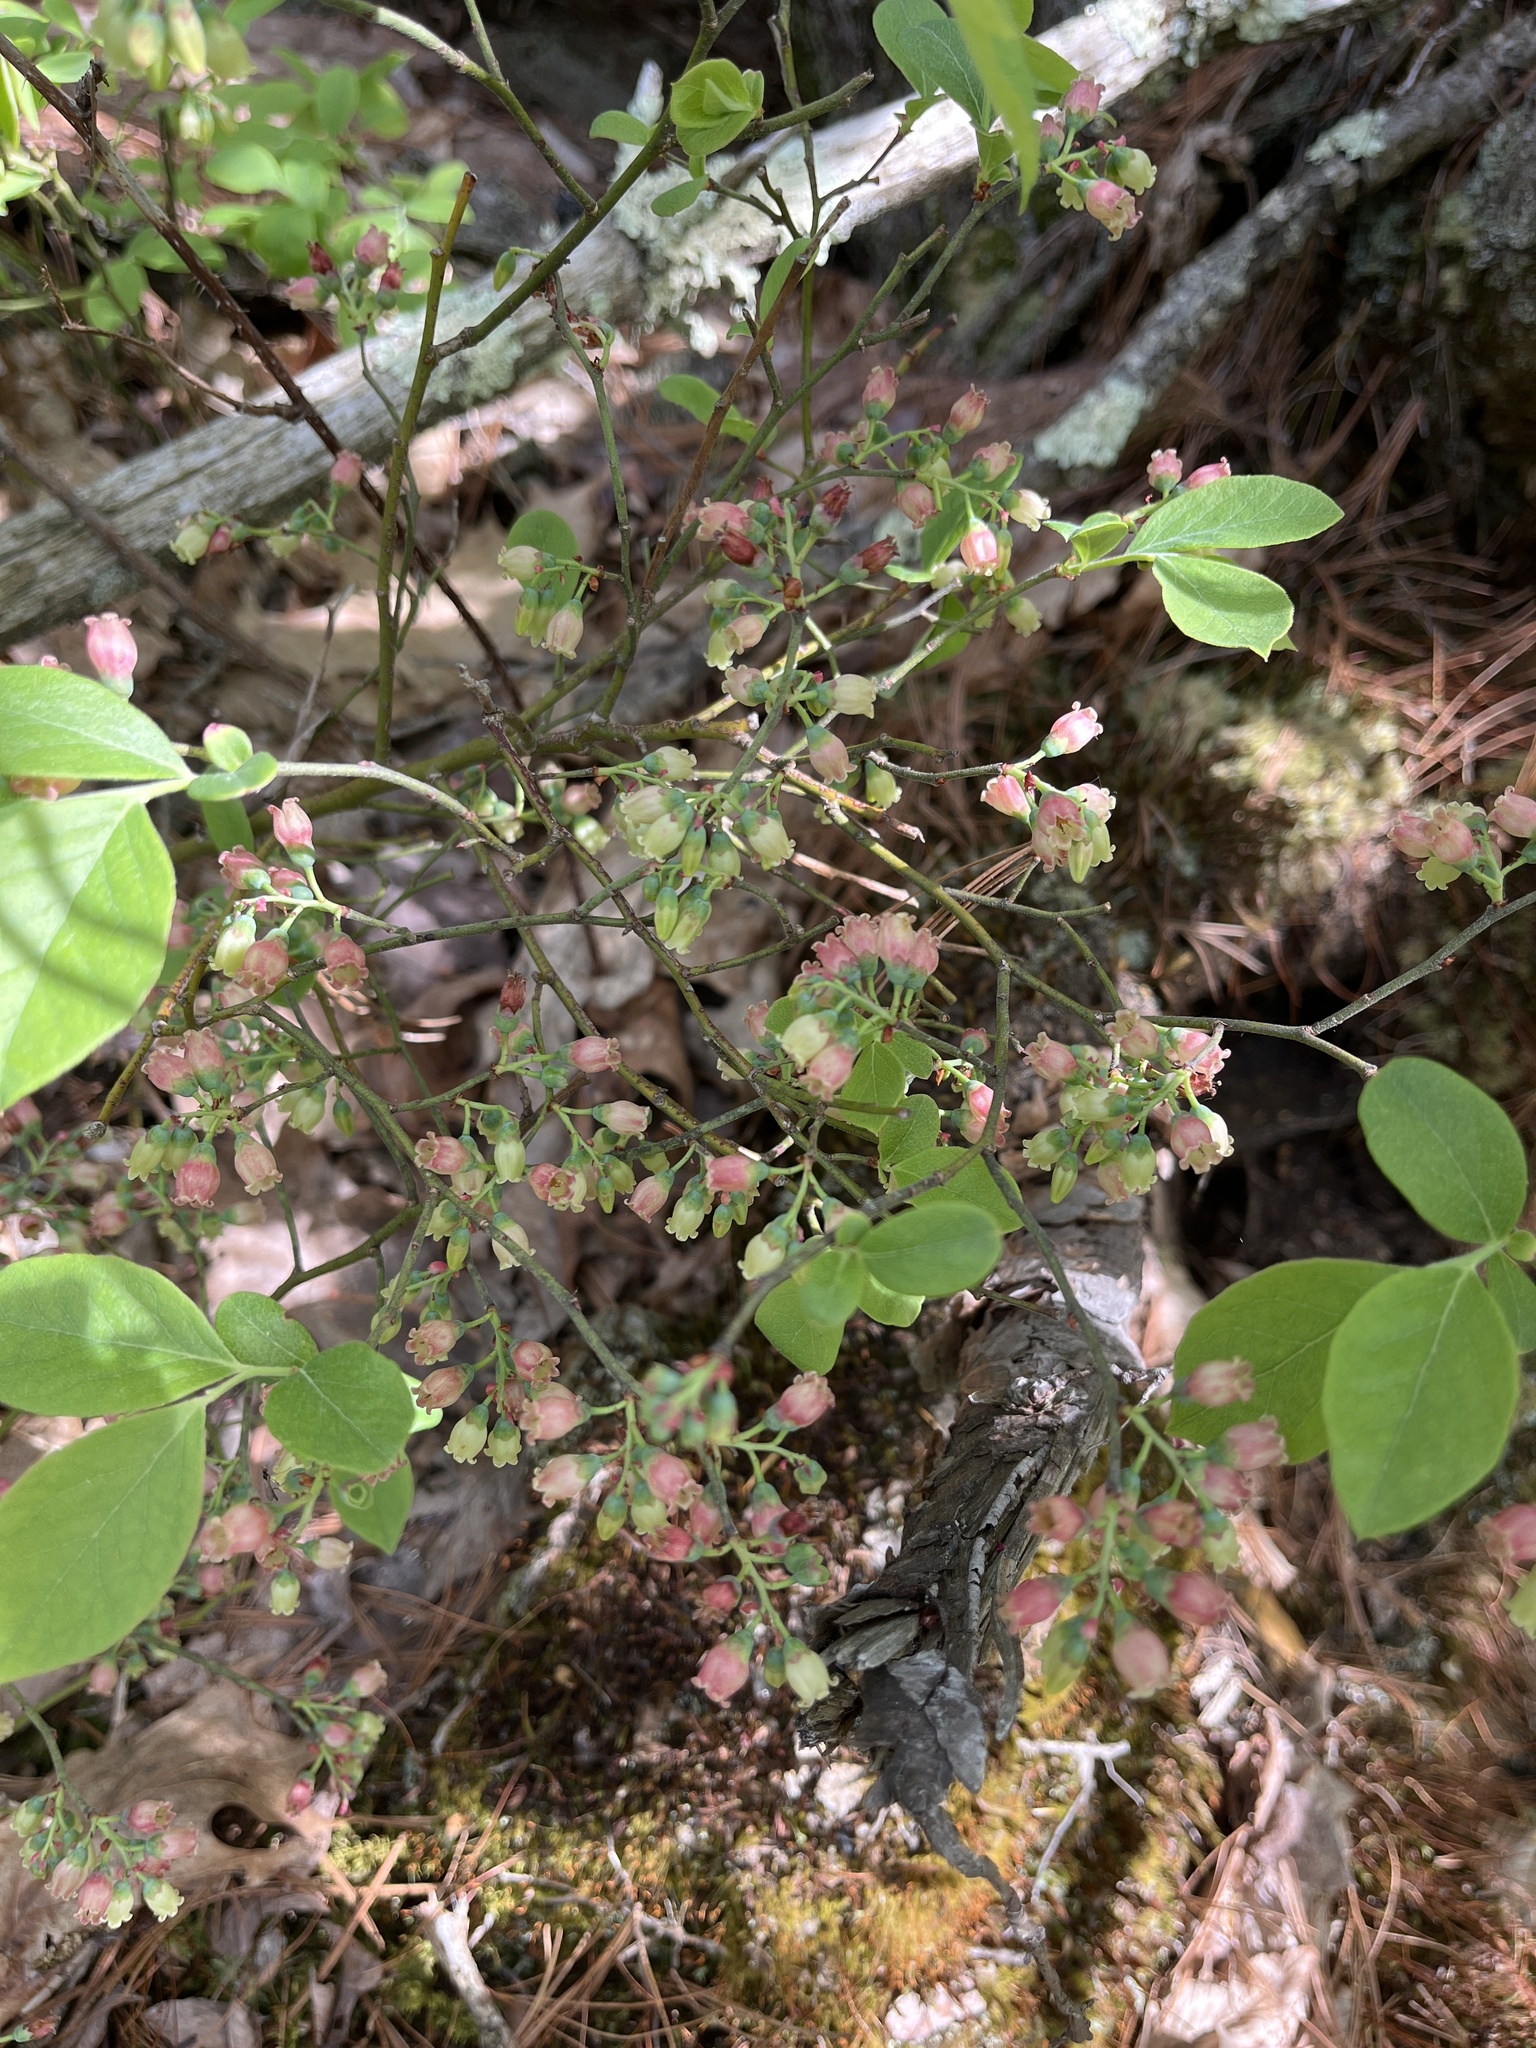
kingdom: Plantae
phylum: Tracheophyta
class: Magnoliopsida
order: Ericales
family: Ericaceae
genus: Vaccinium
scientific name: Vaccinium pallidum
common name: Blue ridge blueberry
